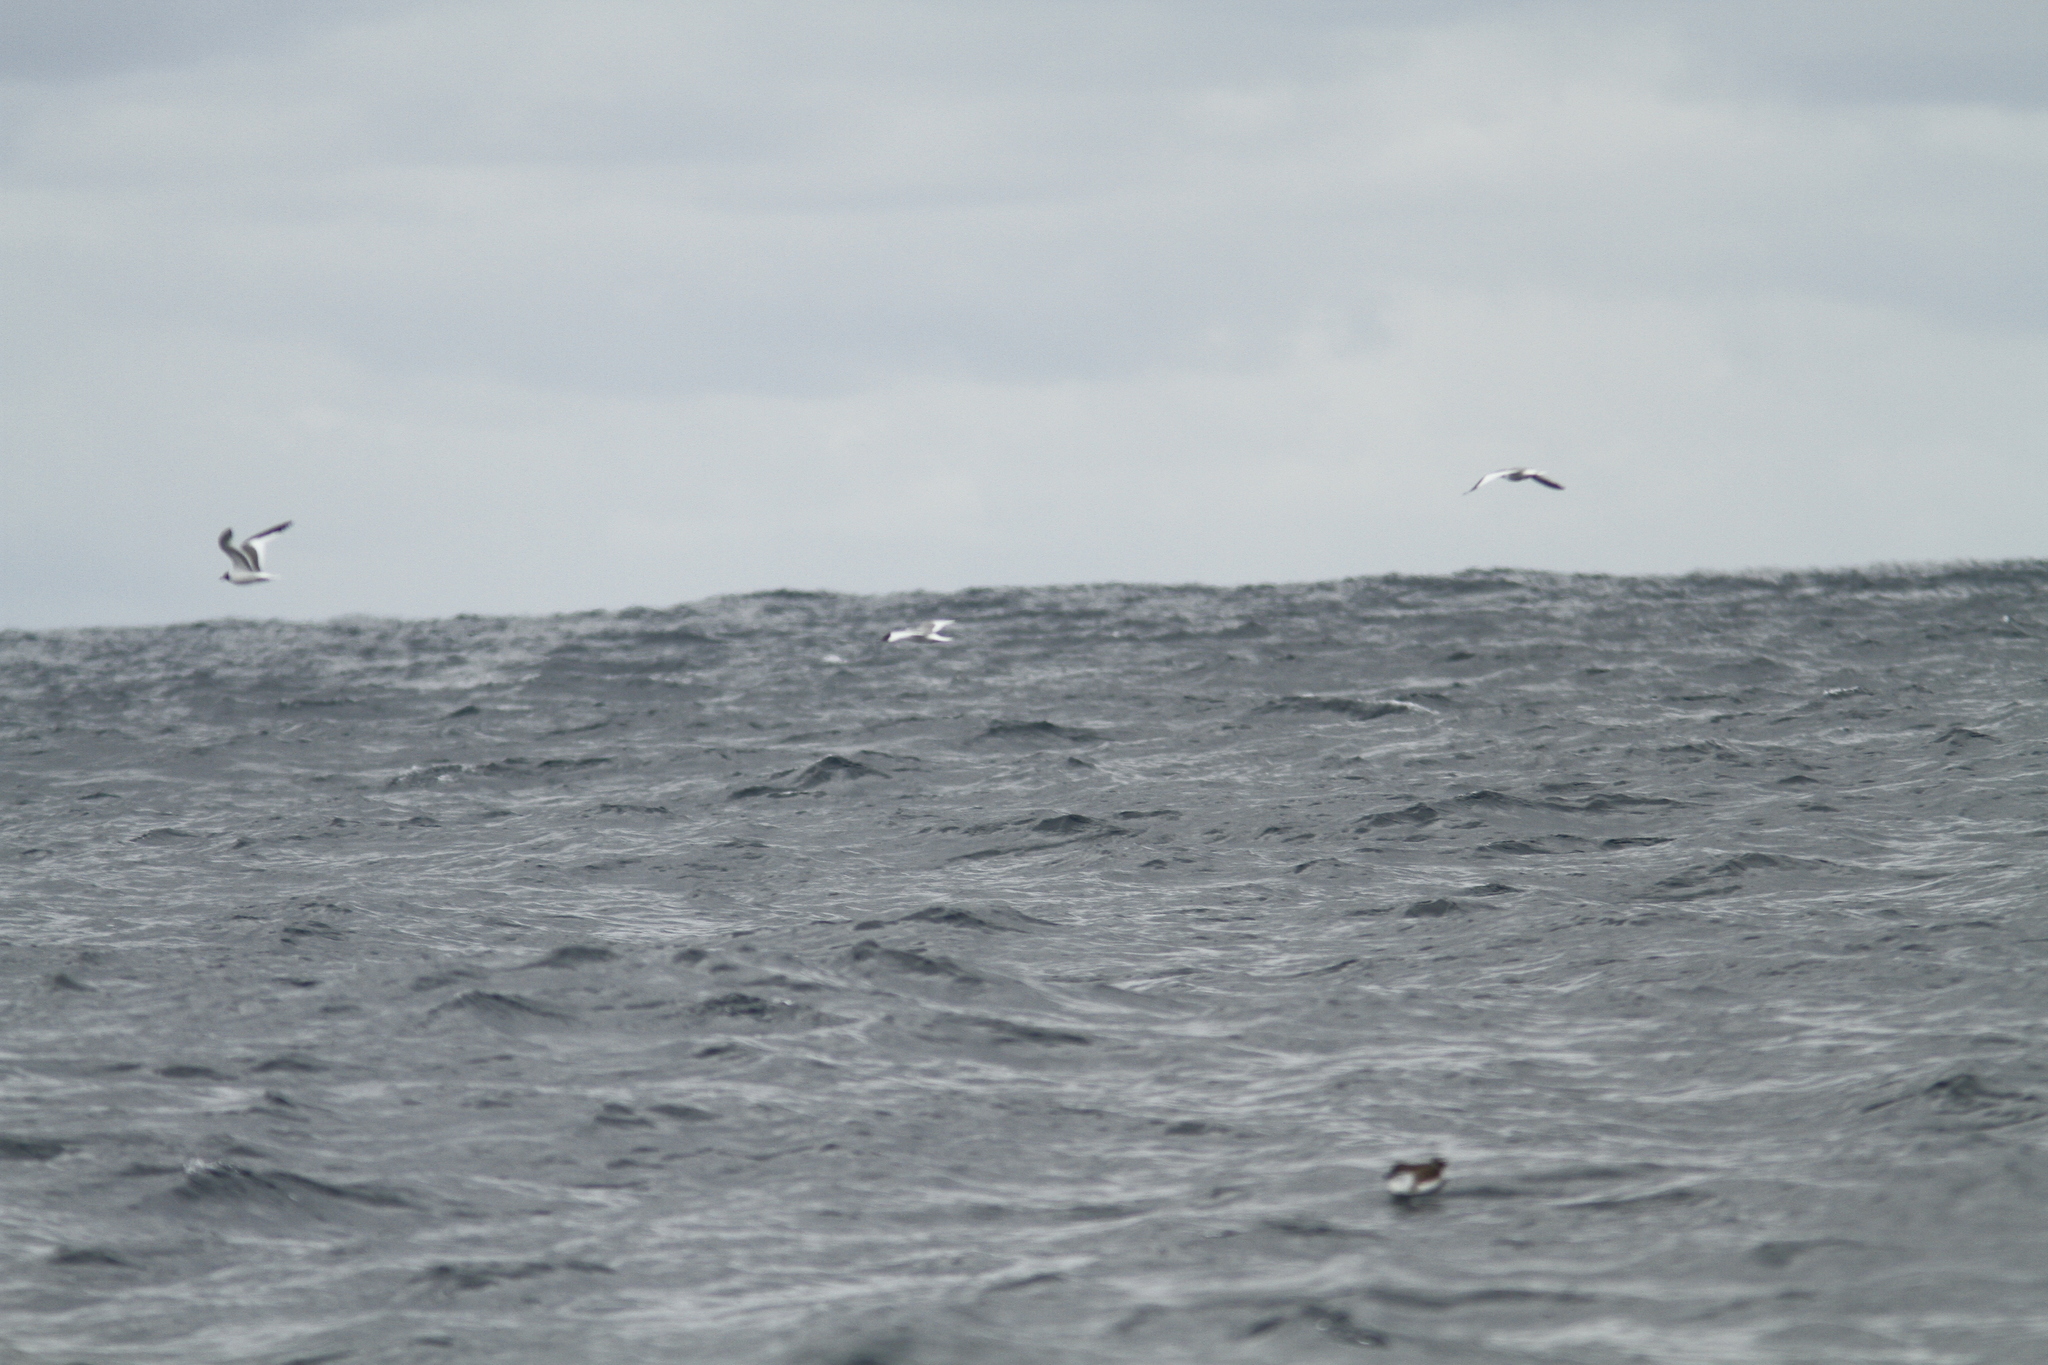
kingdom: Animalia
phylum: Chordata
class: Aves
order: Charadriiformes
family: Laridae
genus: Xema
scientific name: Xema sabini
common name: Sabine's gull
